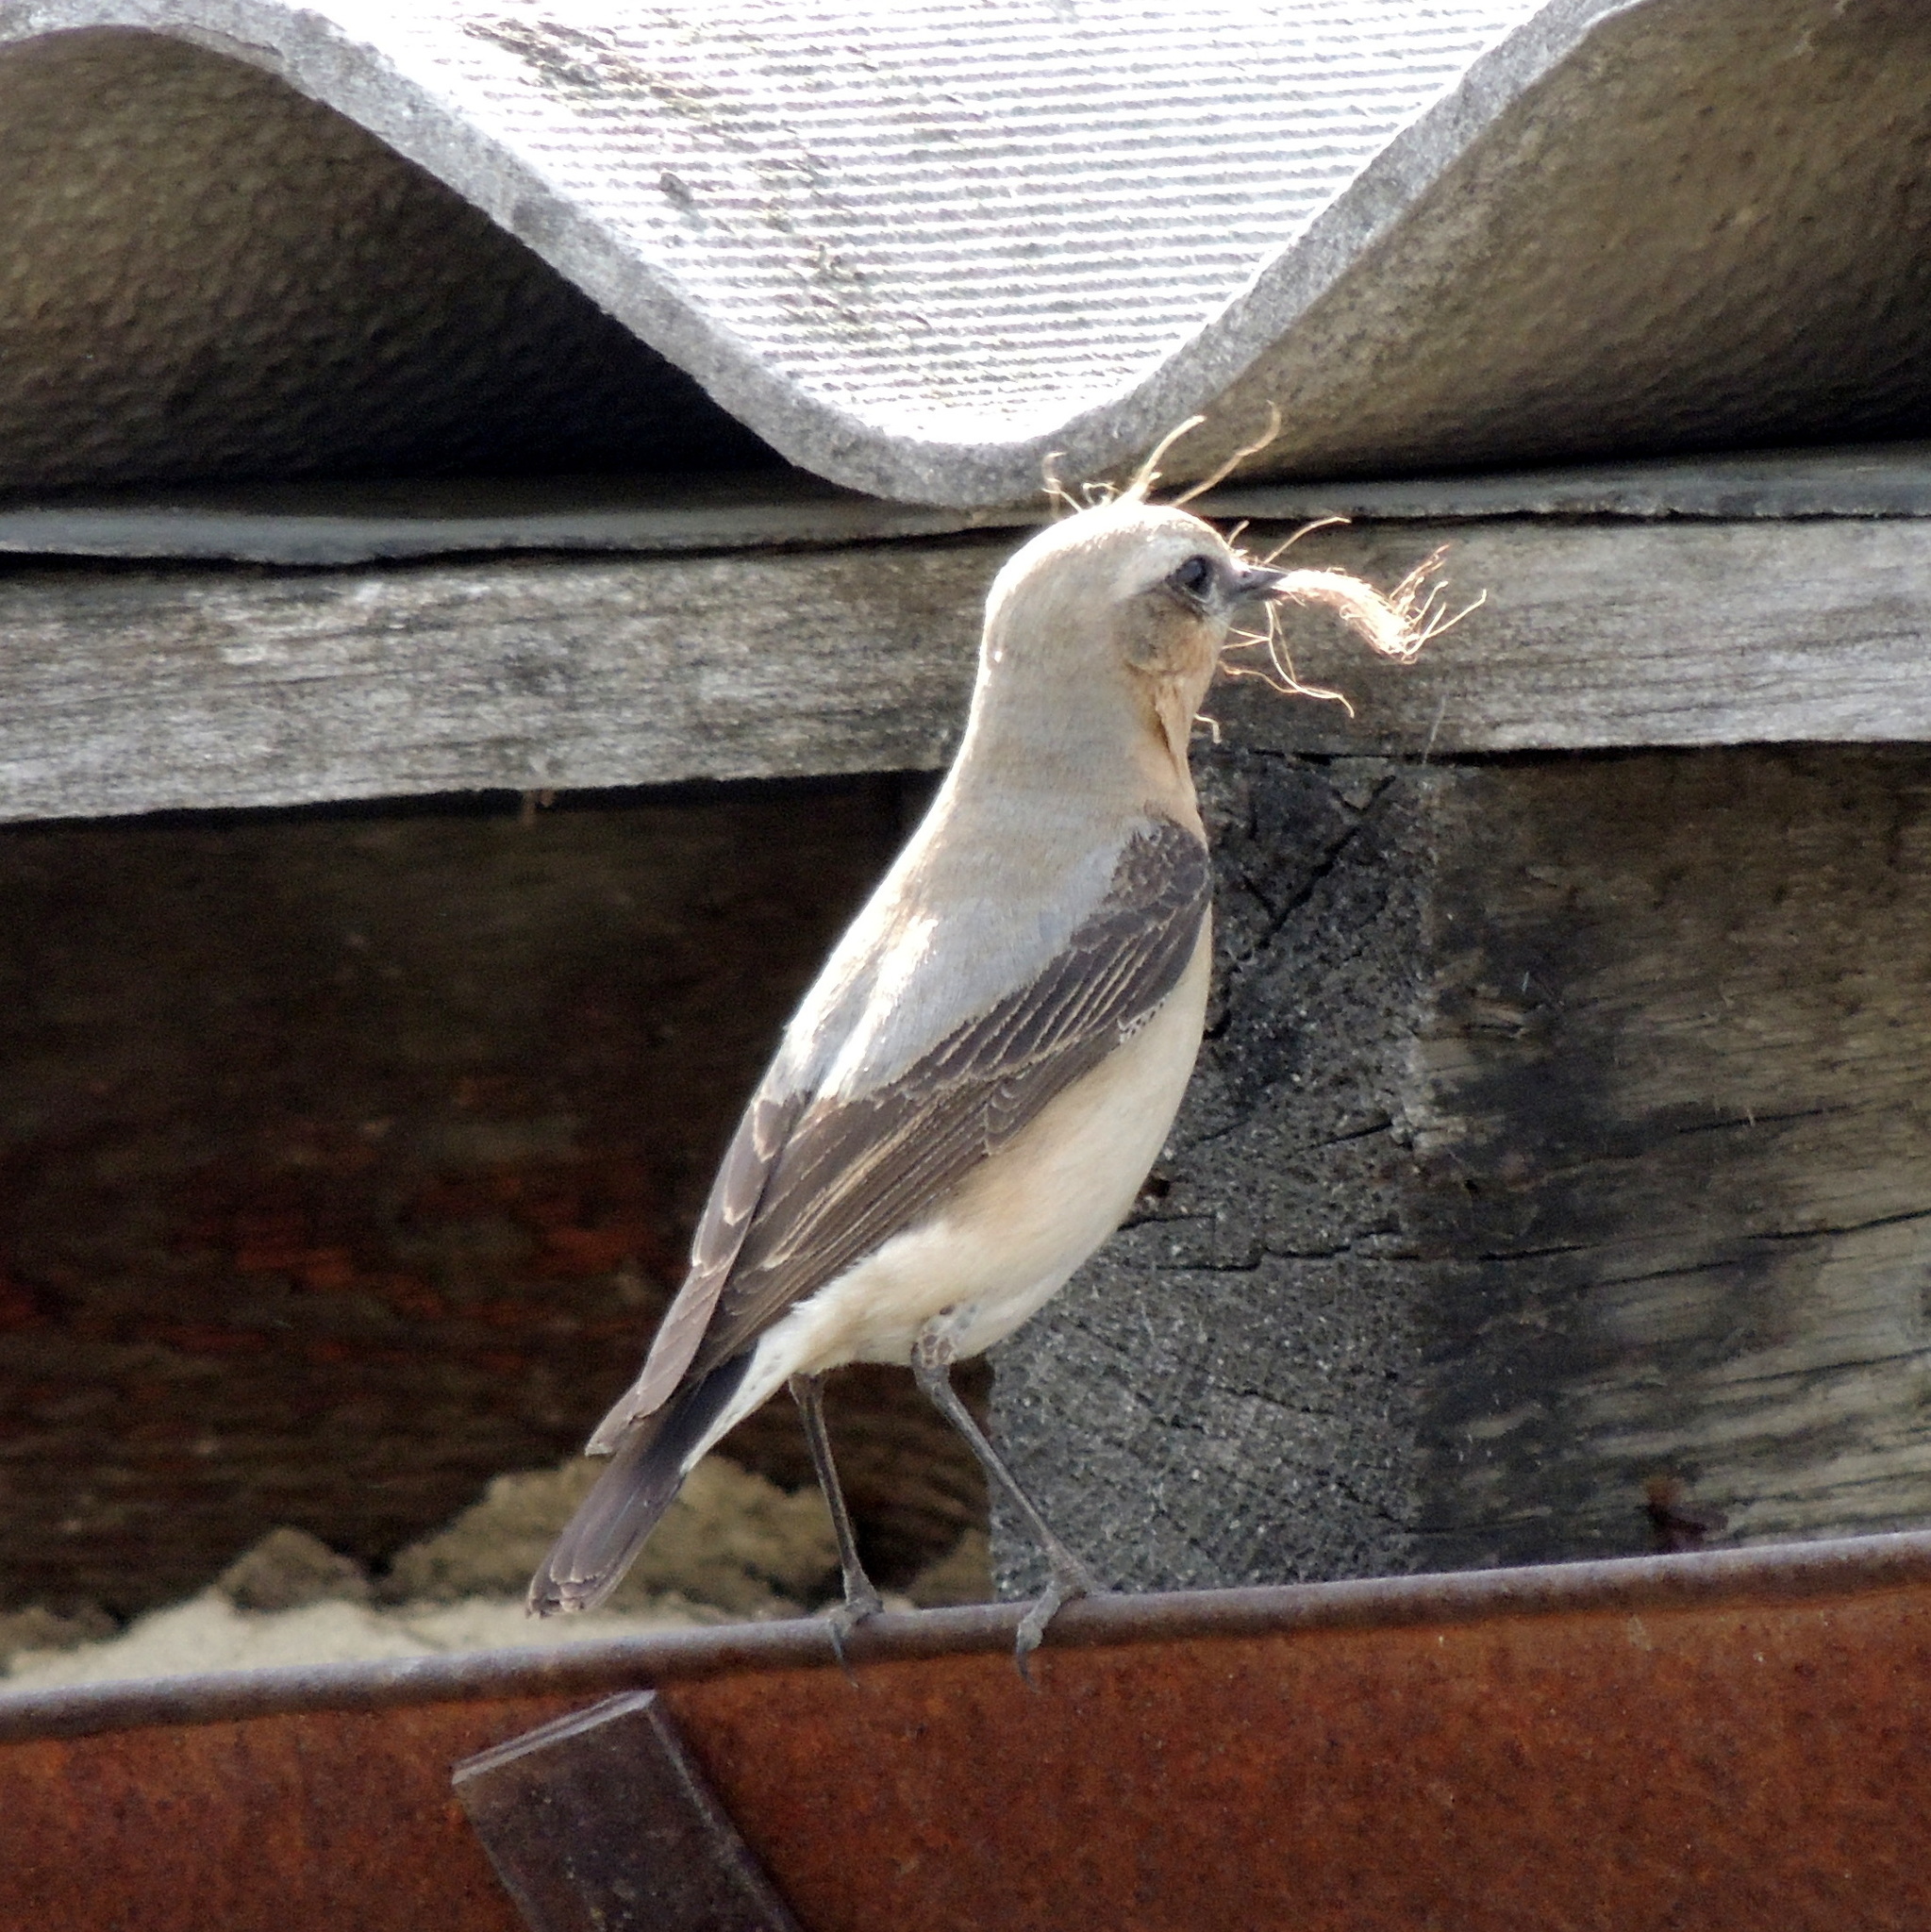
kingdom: Animalia
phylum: Chordata
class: Aves
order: Passeriformes
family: Muscicapidae
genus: Oenanthe
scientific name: Oenanthe oenanthe
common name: Northern wheatear
